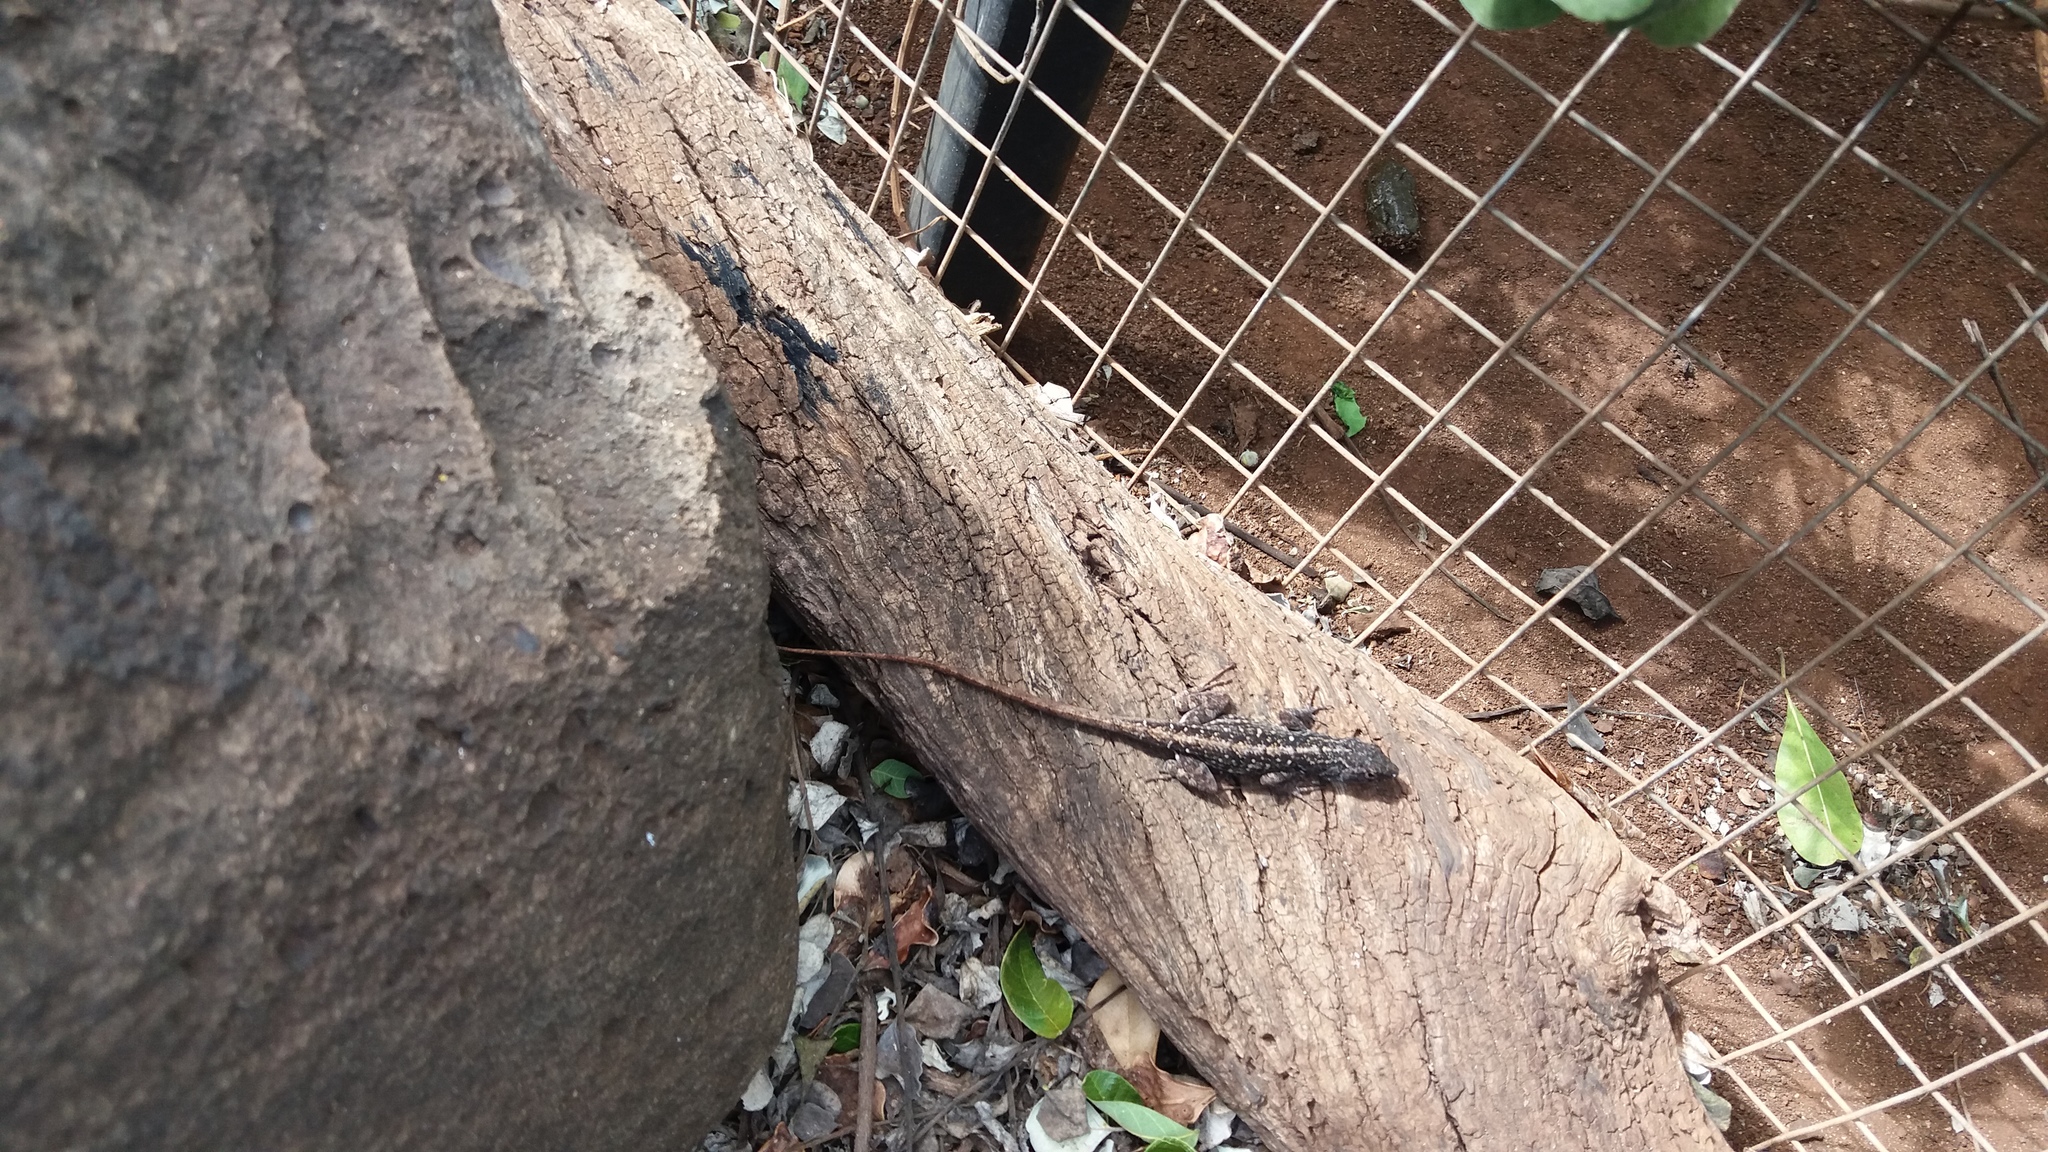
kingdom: Animalia
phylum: Chordata
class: Squamata
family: Dactyloidae
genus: Anolis
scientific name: Anolis sagrei
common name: Brown anole
